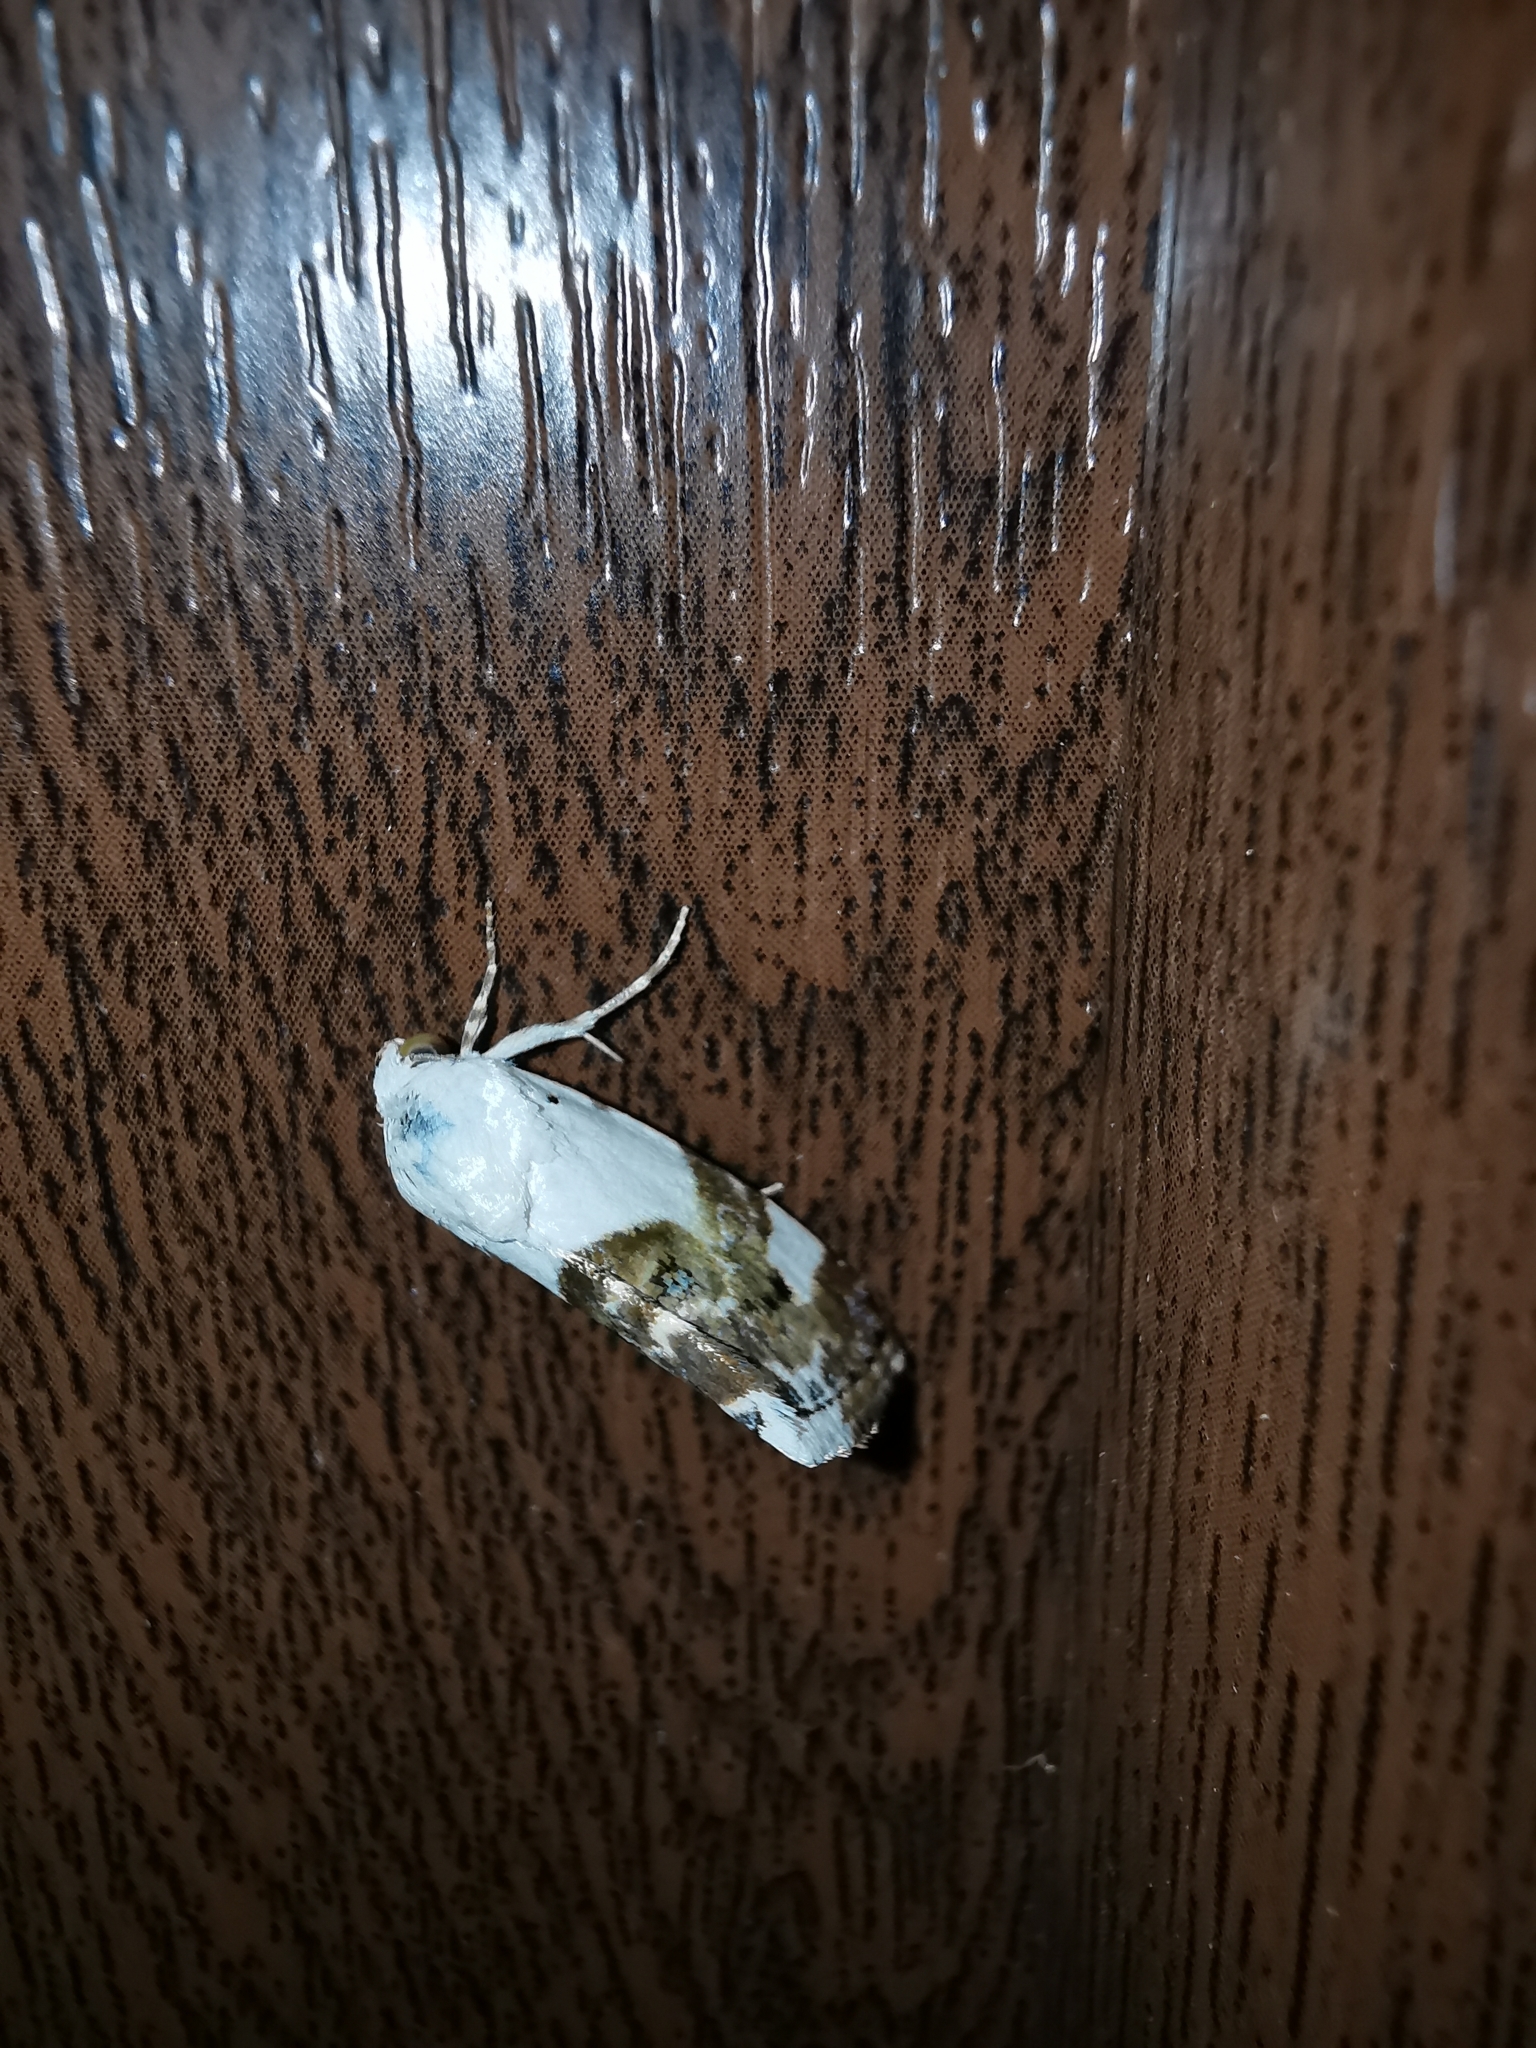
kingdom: Animalia
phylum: Arthropoda
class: Insecta
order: Lepidoptera
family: Noctuidae
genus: Acontia
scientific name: Acontia lucida
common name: Pale shoulder
